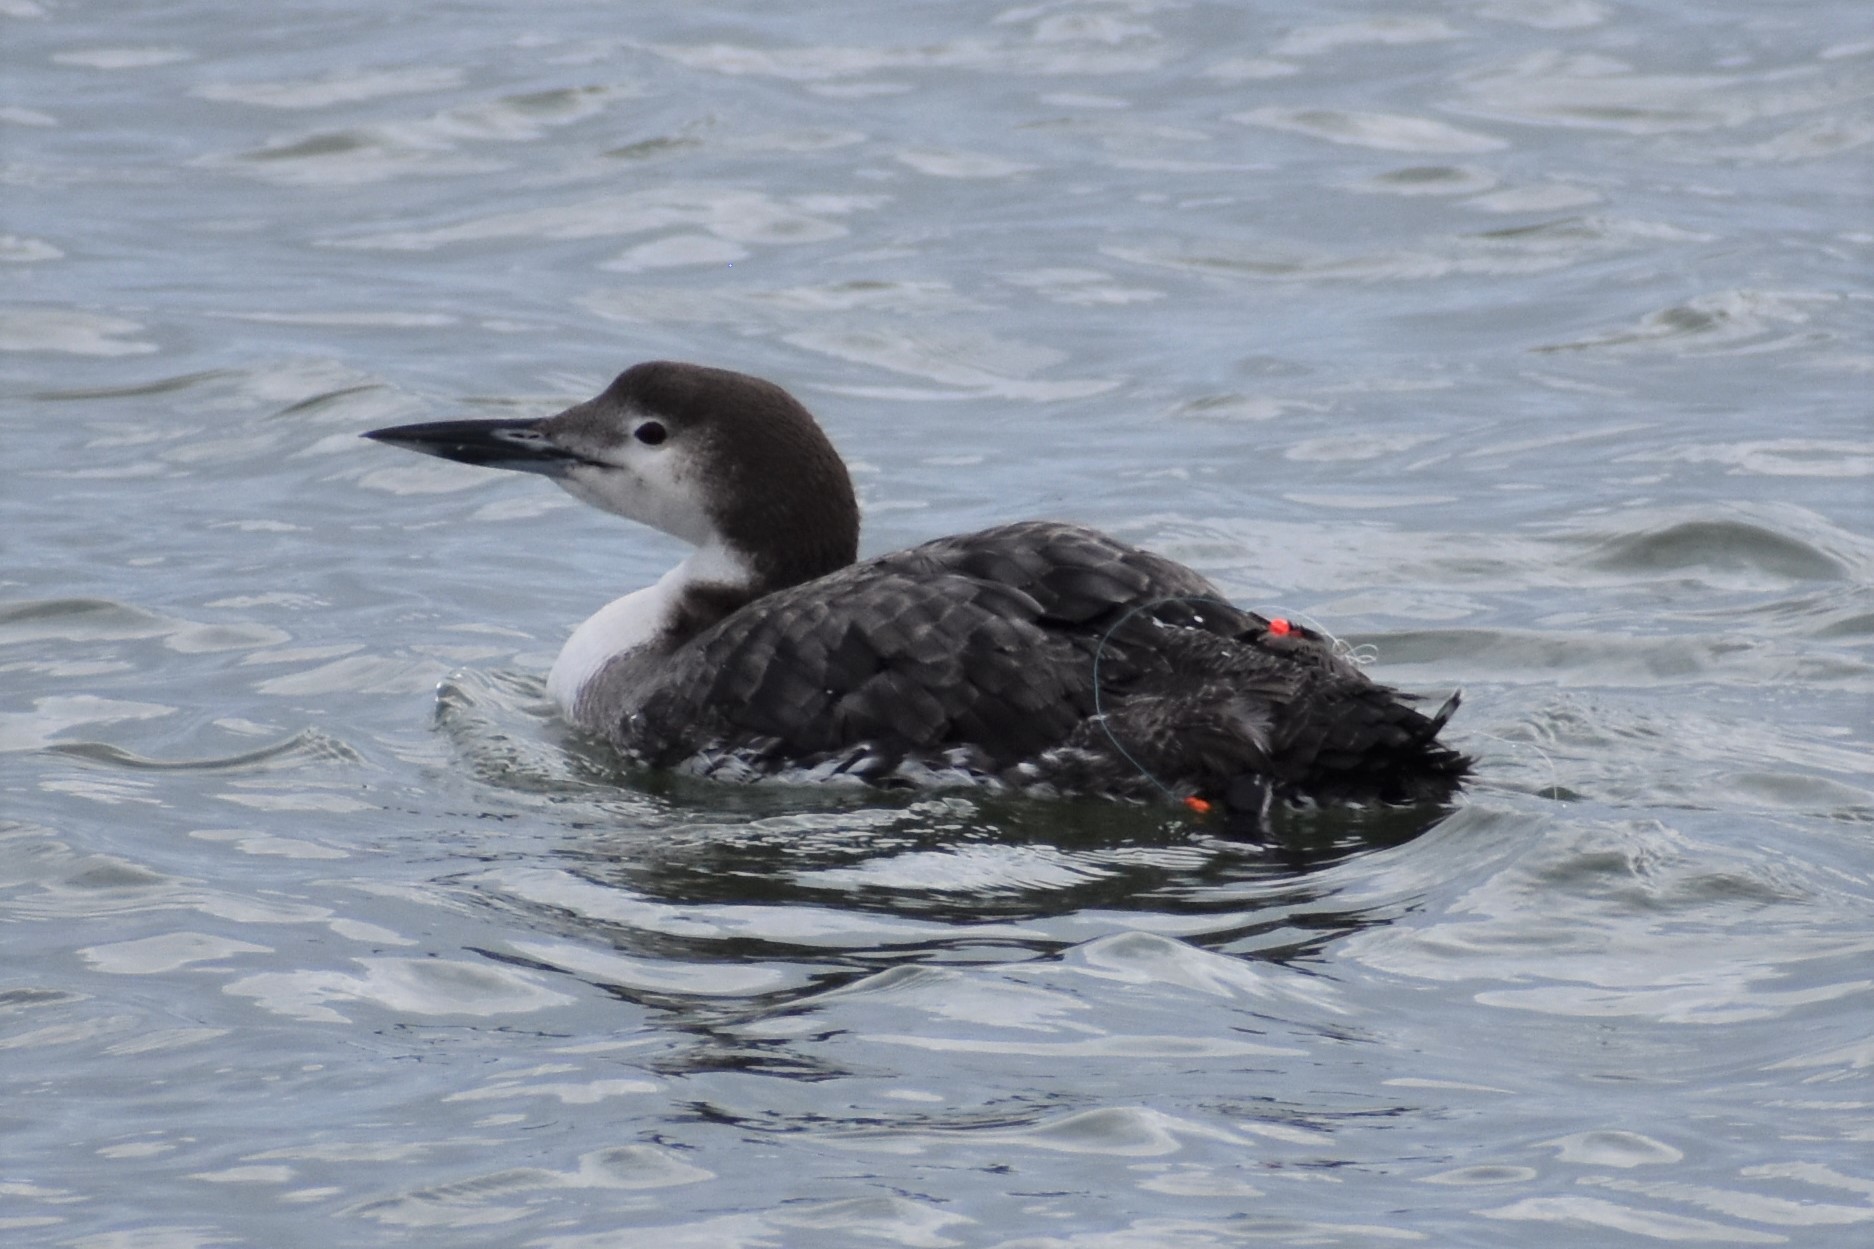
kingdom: Animalia
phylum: Chordata
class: Aves
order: Gaviiformes
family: Gaviidae
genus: Gavia
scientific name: Gavia immer
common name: Common loon
